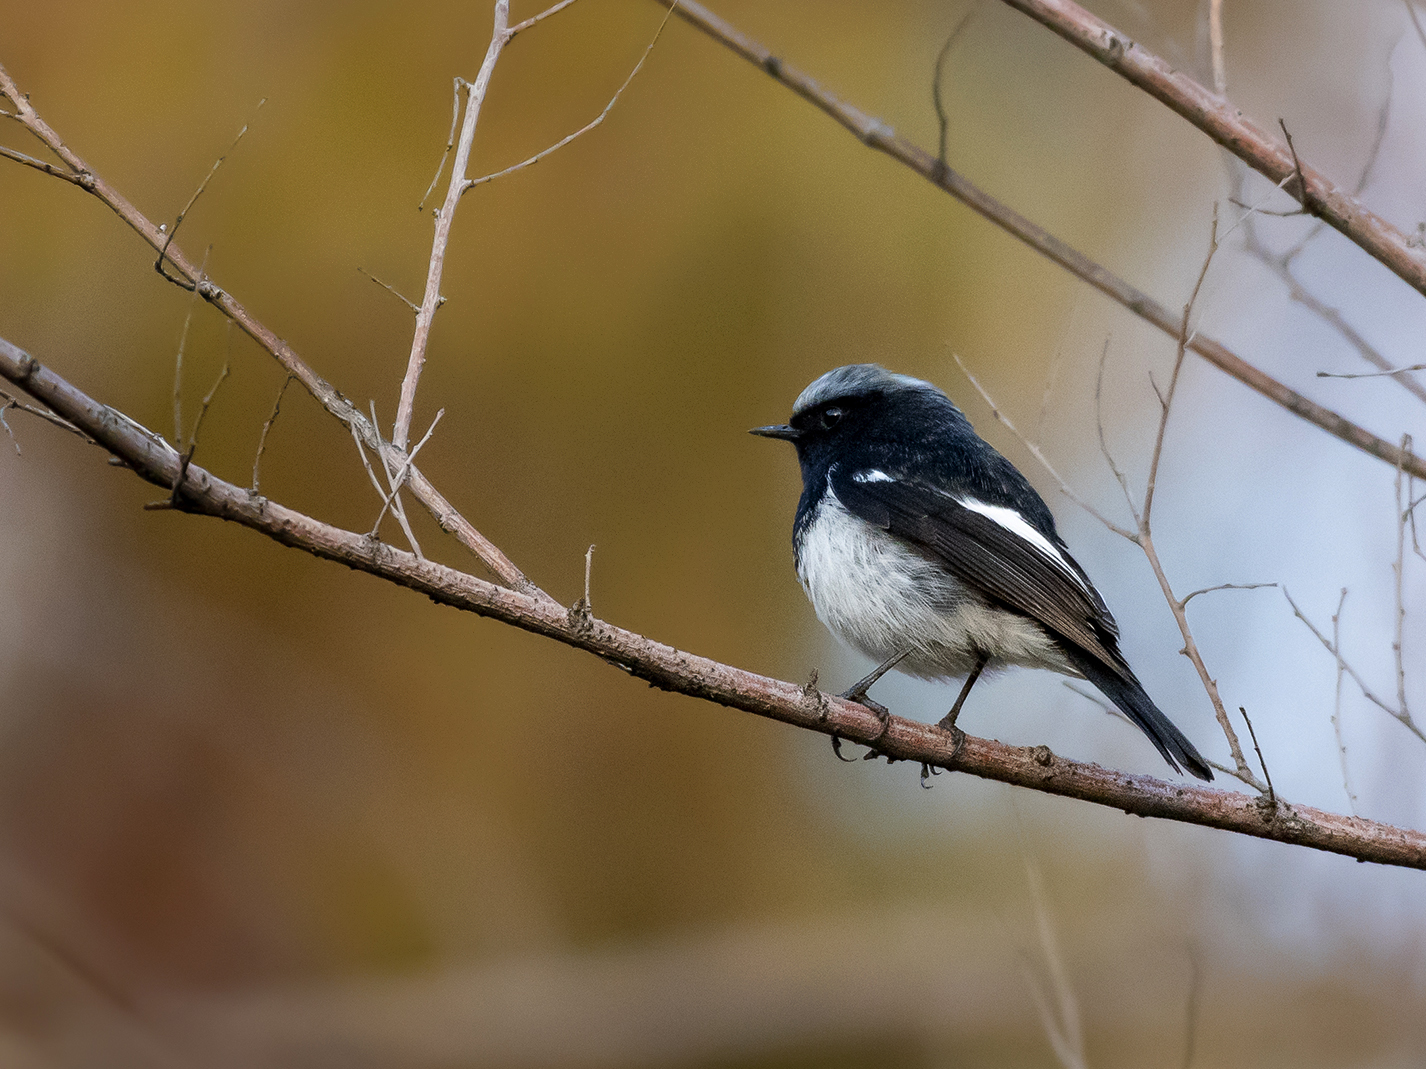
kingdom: Animalia
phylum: Chordata
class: Aves
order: Passeriformes
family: Muscicapidae
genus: Phoenicurus
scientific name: Phoenicurus coeruleocephala
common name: Blue-capped redstart
